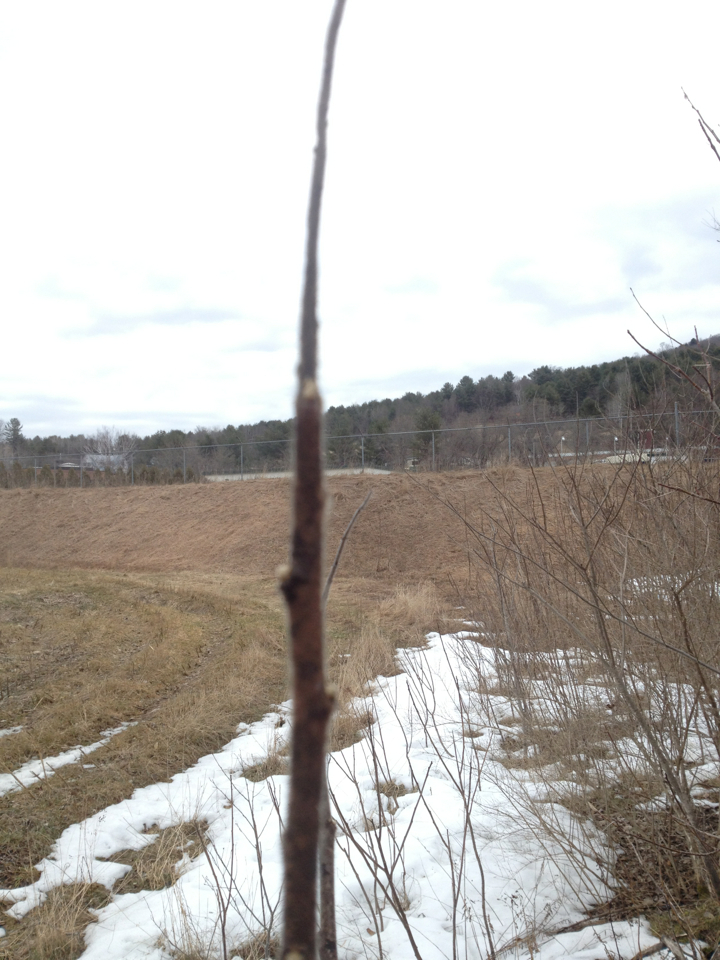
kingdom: Plantae
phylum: Tracheophyta
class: Magnoliopsida
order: Sapindales
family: Anacardiaceae
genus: Rhus
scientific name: Rhus typhina
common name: Staghorn sumac
